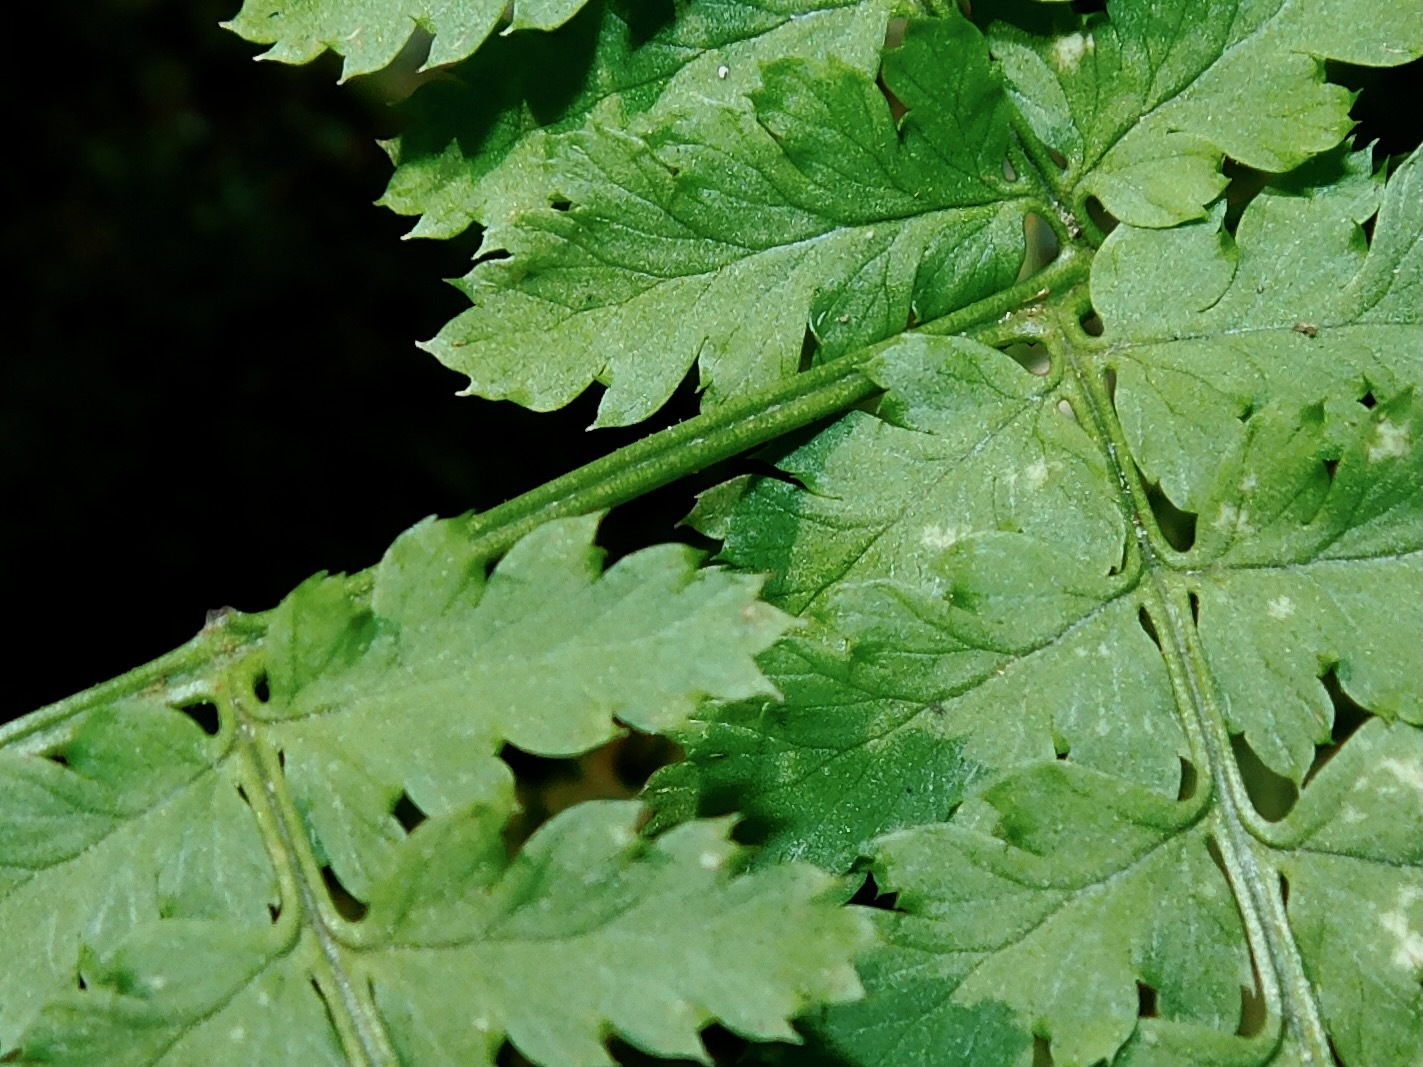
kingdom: Plantae
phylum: Tracheophyta
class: Polypodiopsida
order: Polypodiales
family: Dryopteridaceae
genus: Dryopteris
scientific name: Dryopteris intermedia
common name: Evergreen wood fern
